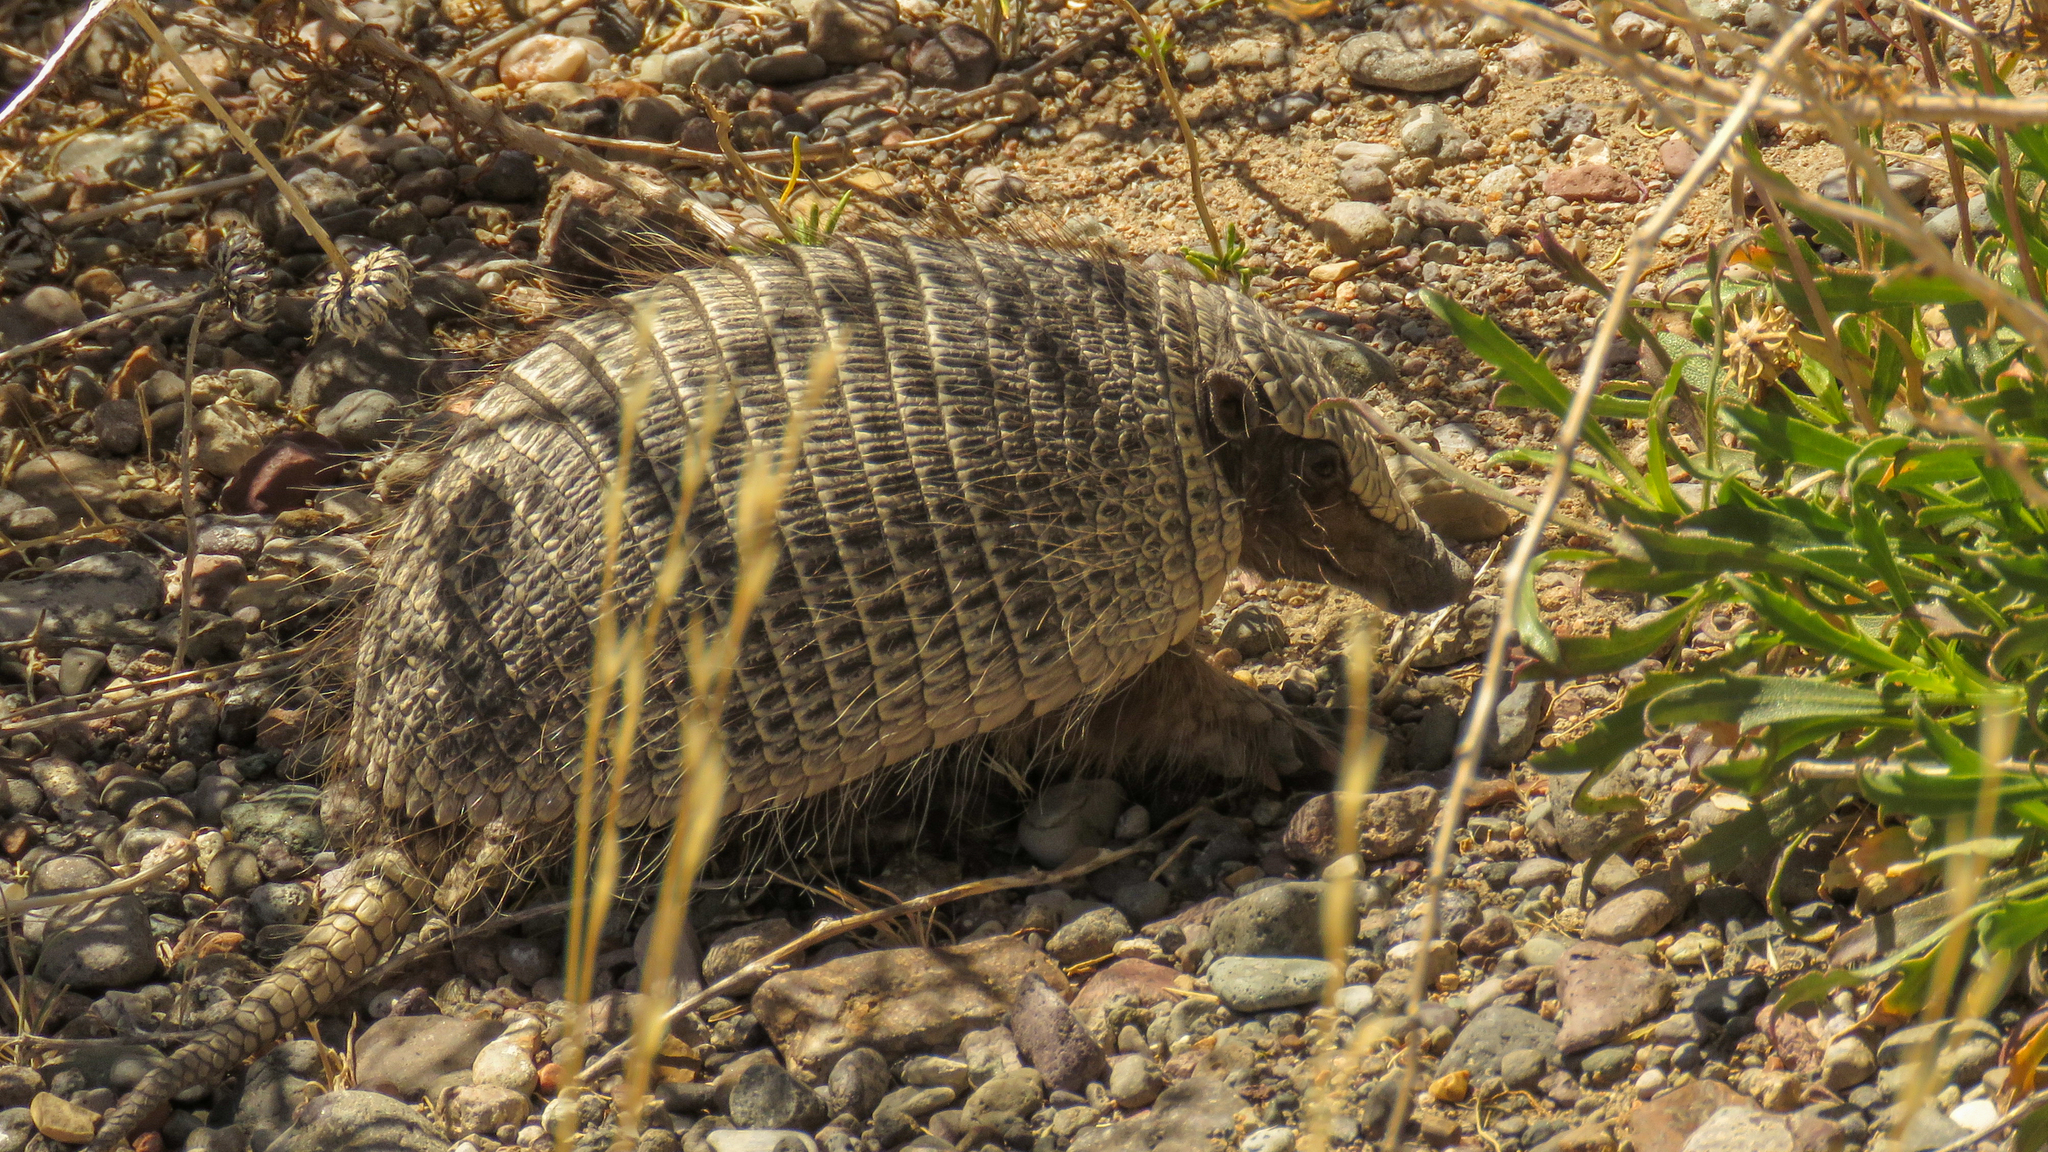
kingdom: Animalia
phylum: Chordata
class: Mammalia
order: Cingulata
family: Dasypodidae
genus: Zaedyus
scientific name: Zaedyus pichiy
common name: Pichi
